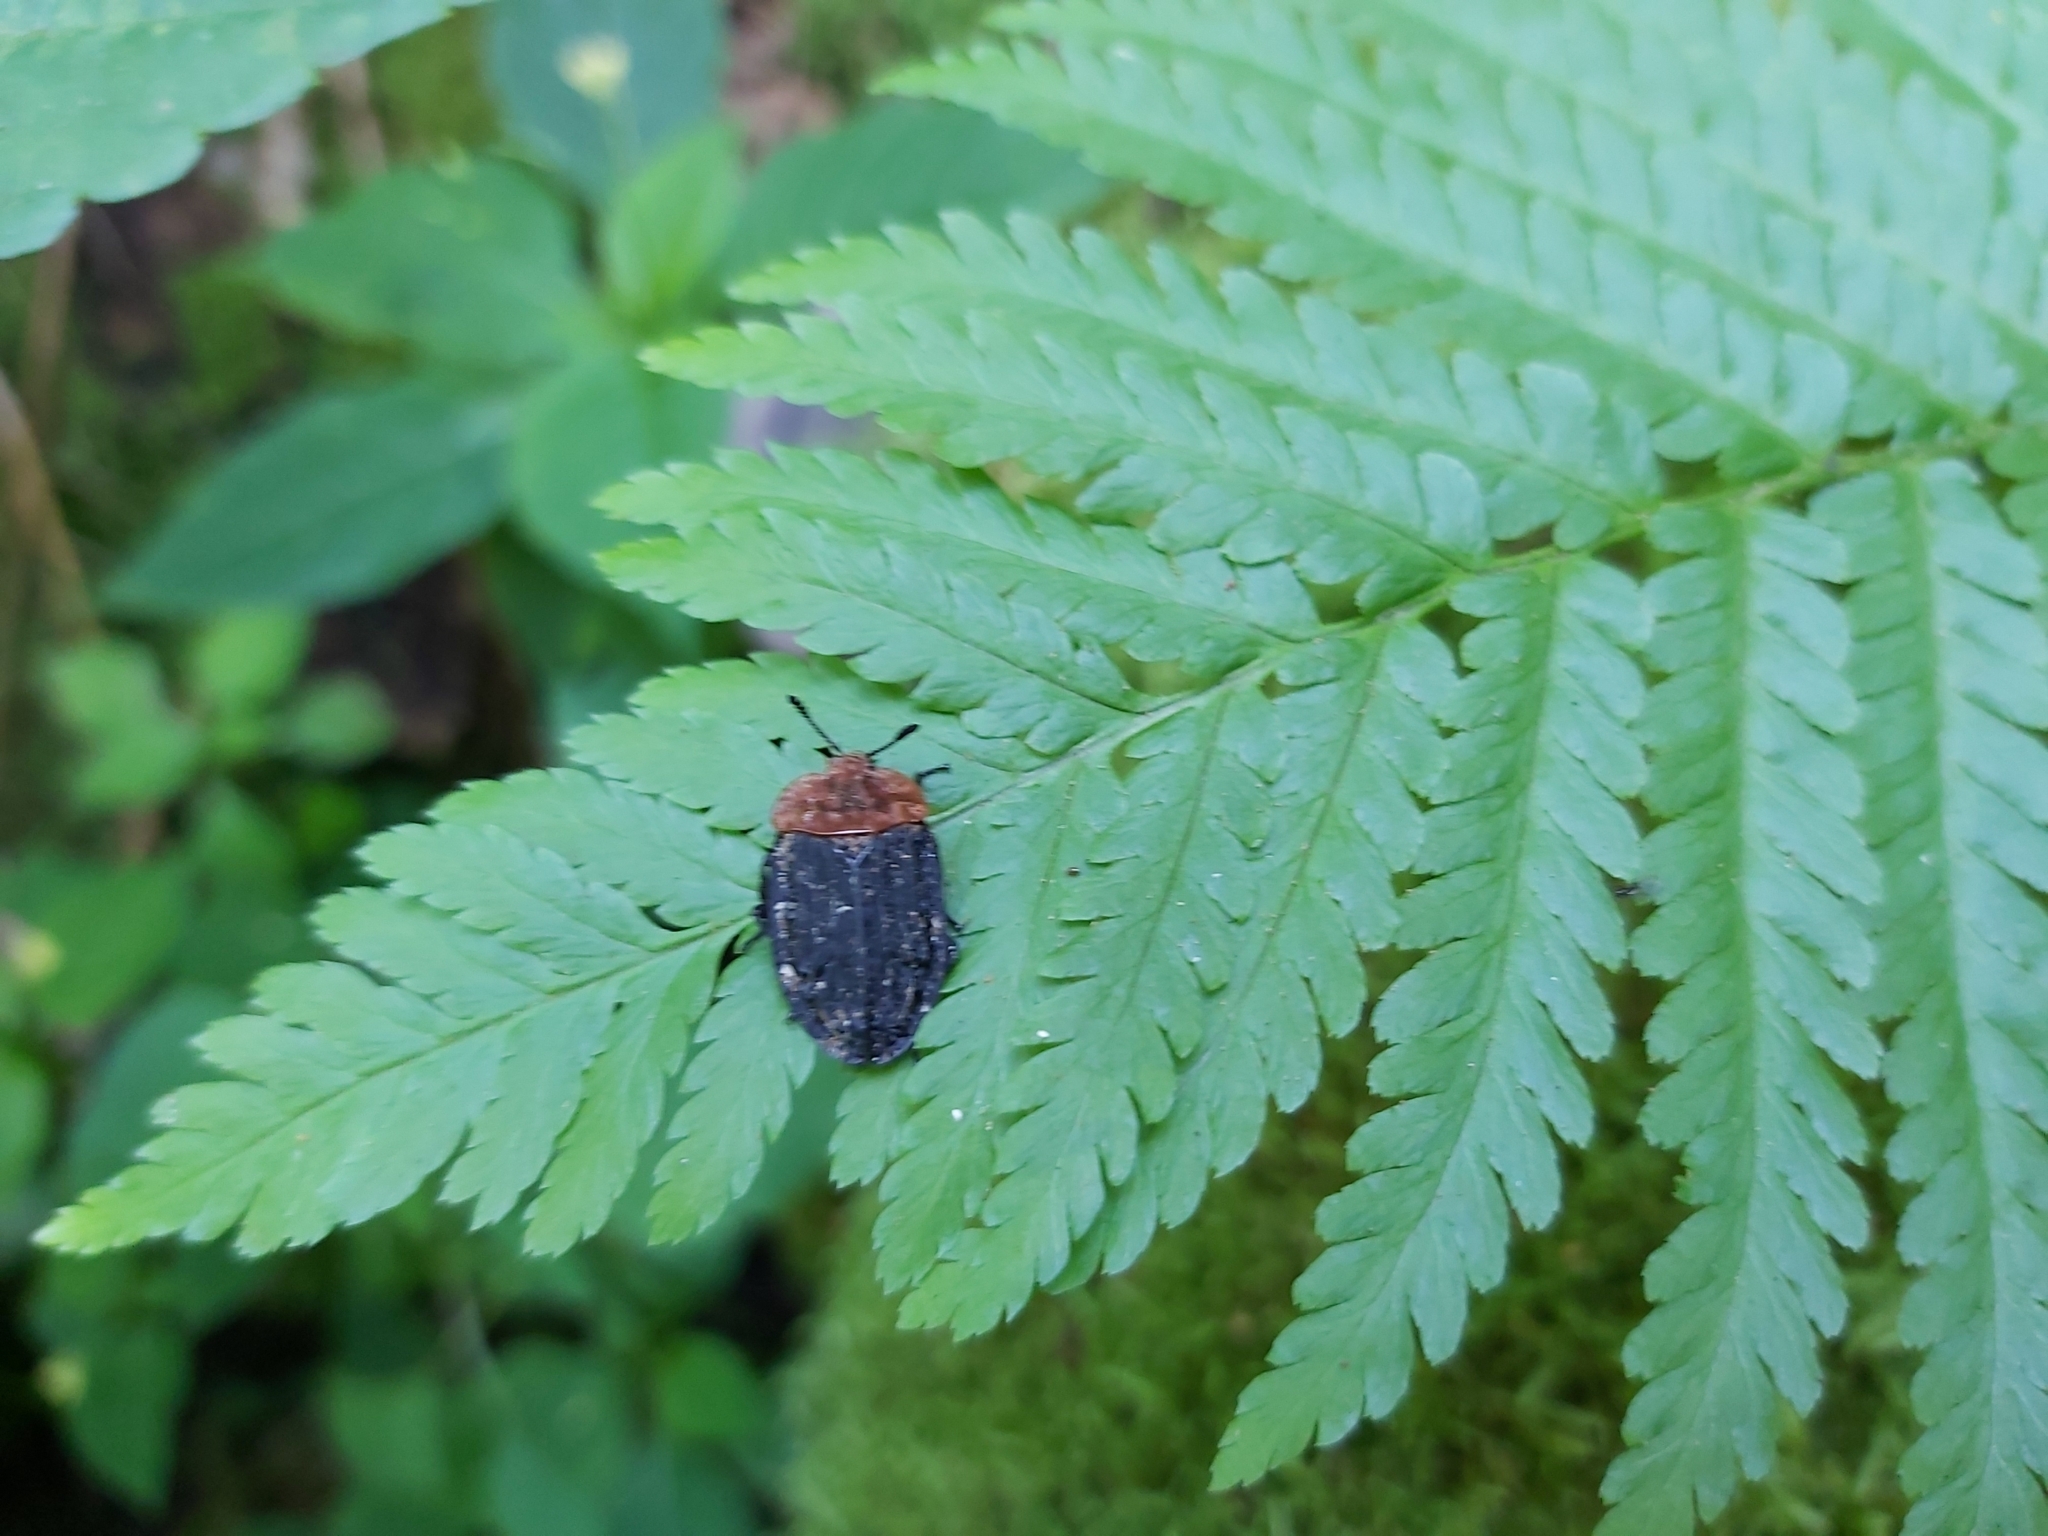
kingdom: Animalia
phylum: Arthropoda
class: Insecta
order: Coleoptera
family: Staphylinidae
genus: Oiceoptoma
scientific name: Oiceoptoma thoracicum
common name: Red-breasted carrion beetle
